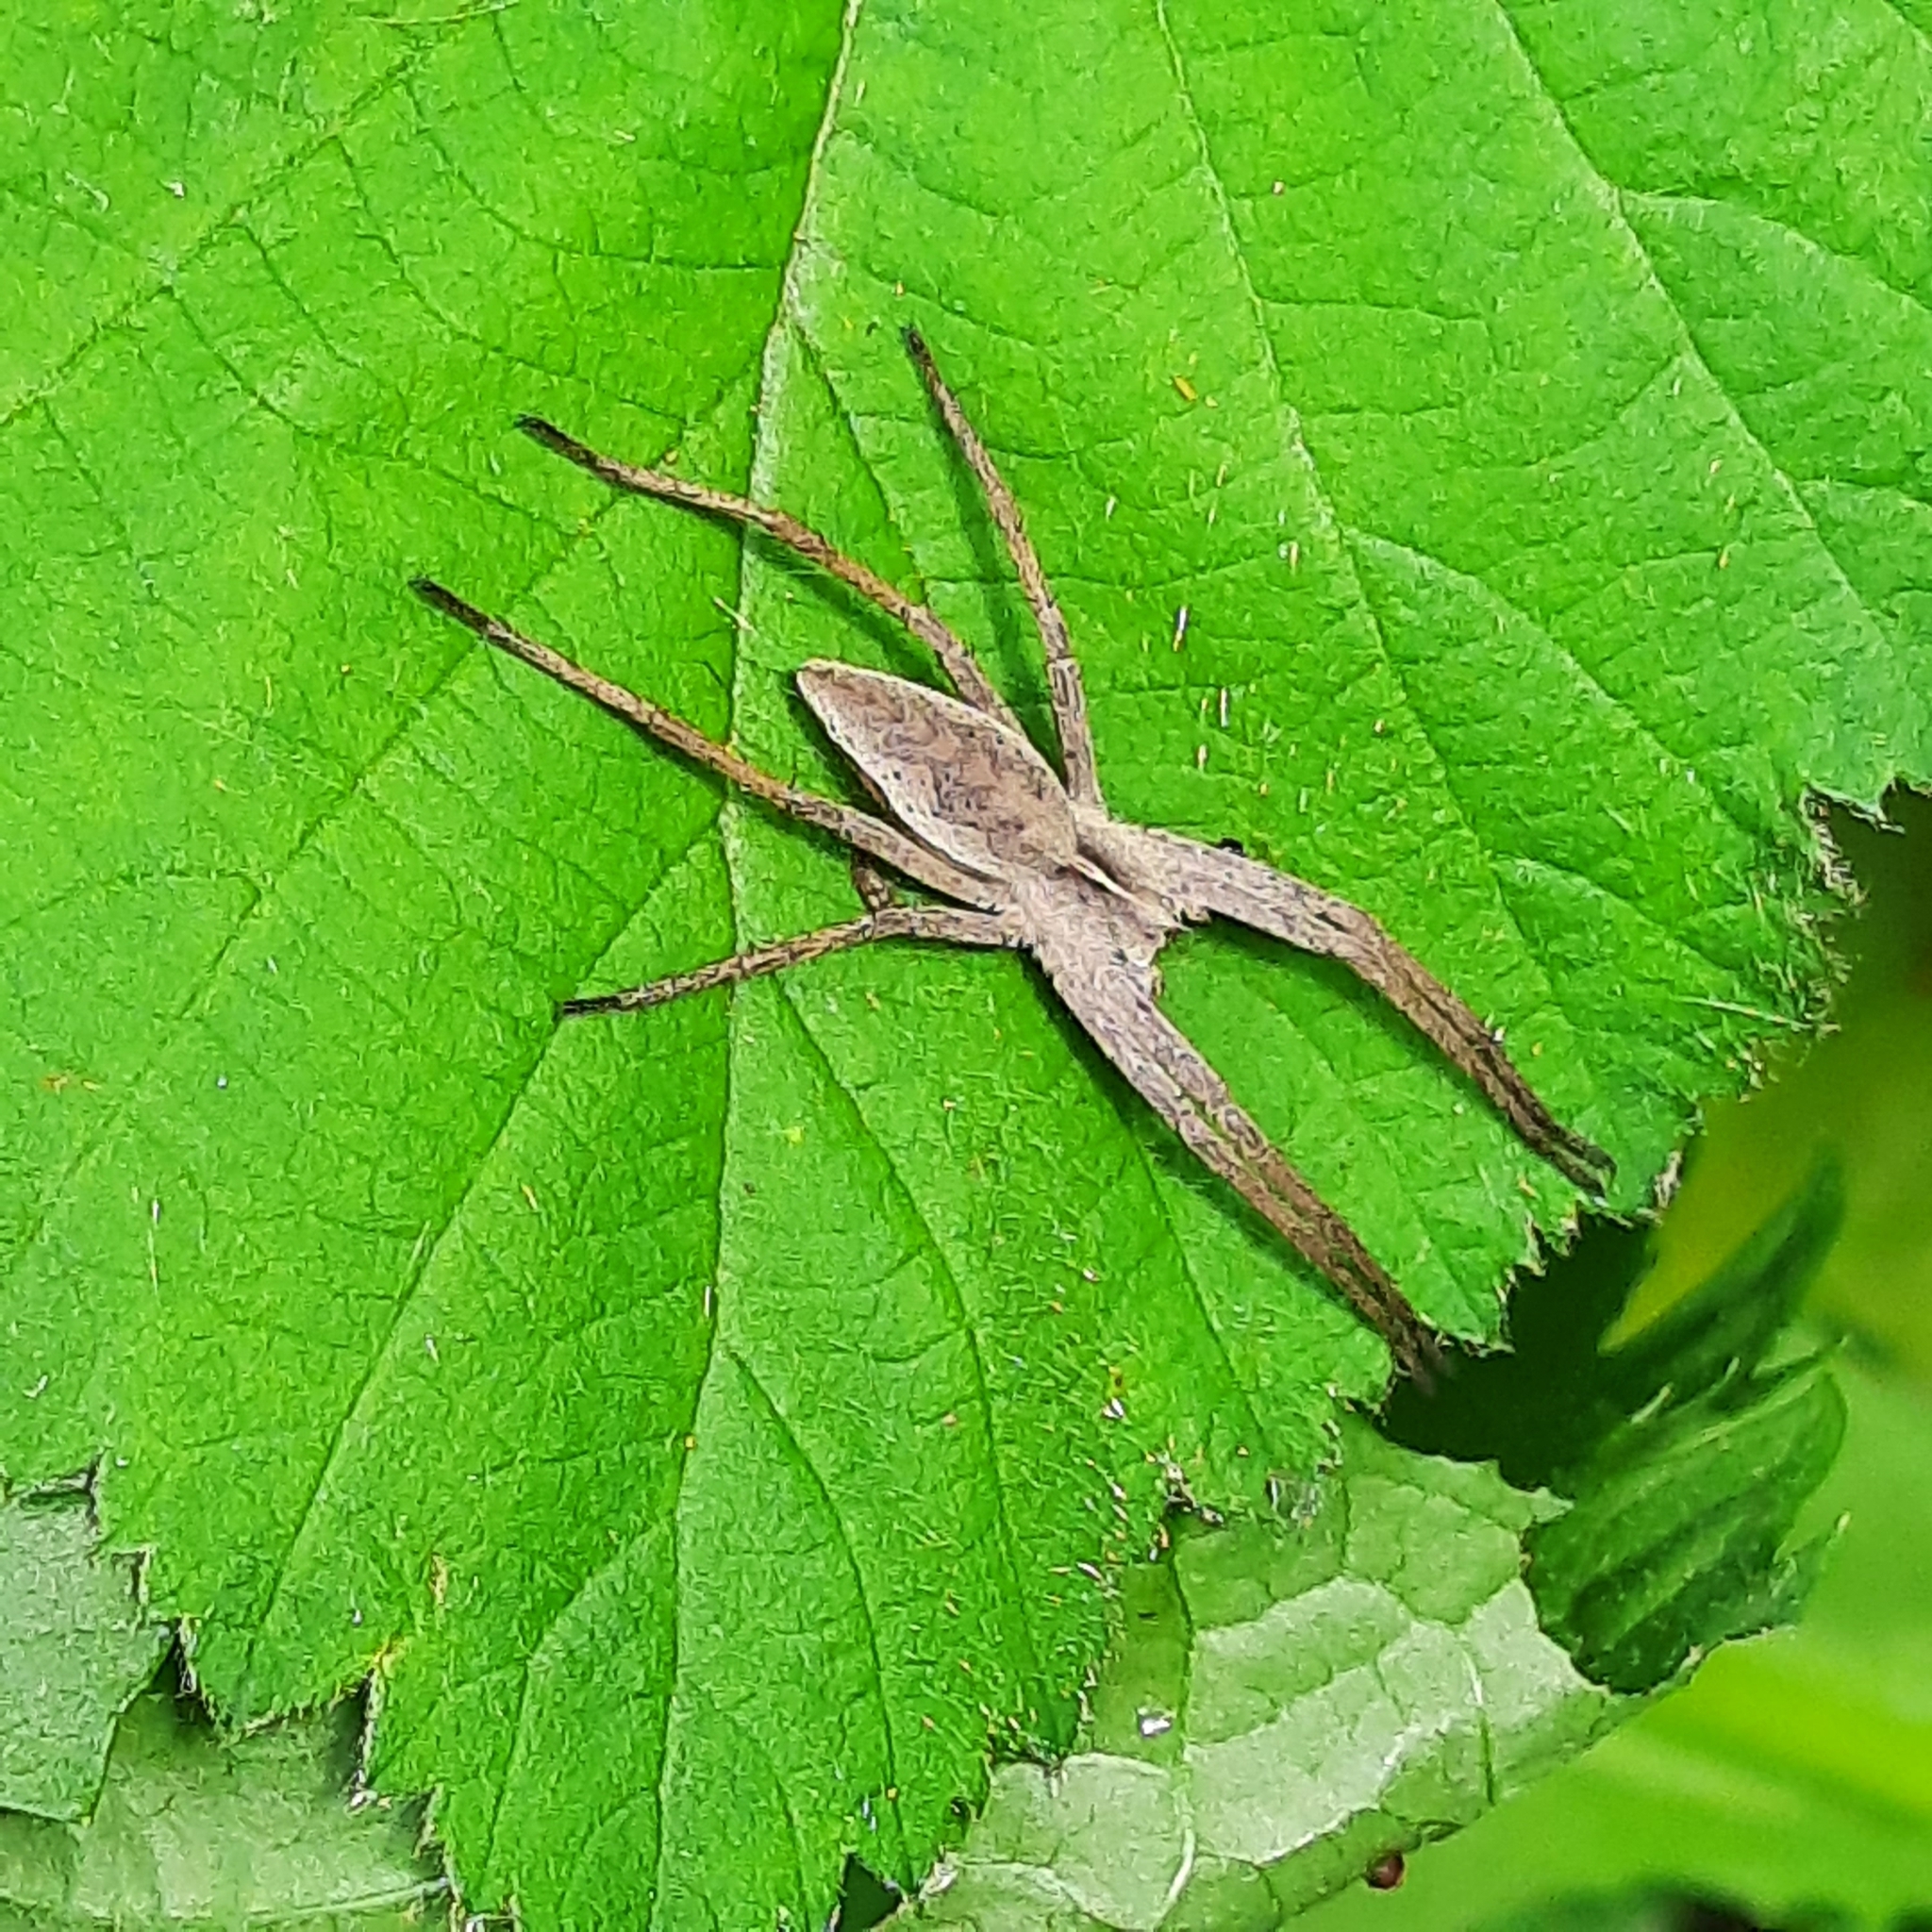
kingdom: Animalia
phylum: Arthropoda
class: Arachnida
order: Araneae
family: Pisauridae
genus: Pisaura
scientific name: Pisaura mirabilis
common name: Tent spider
